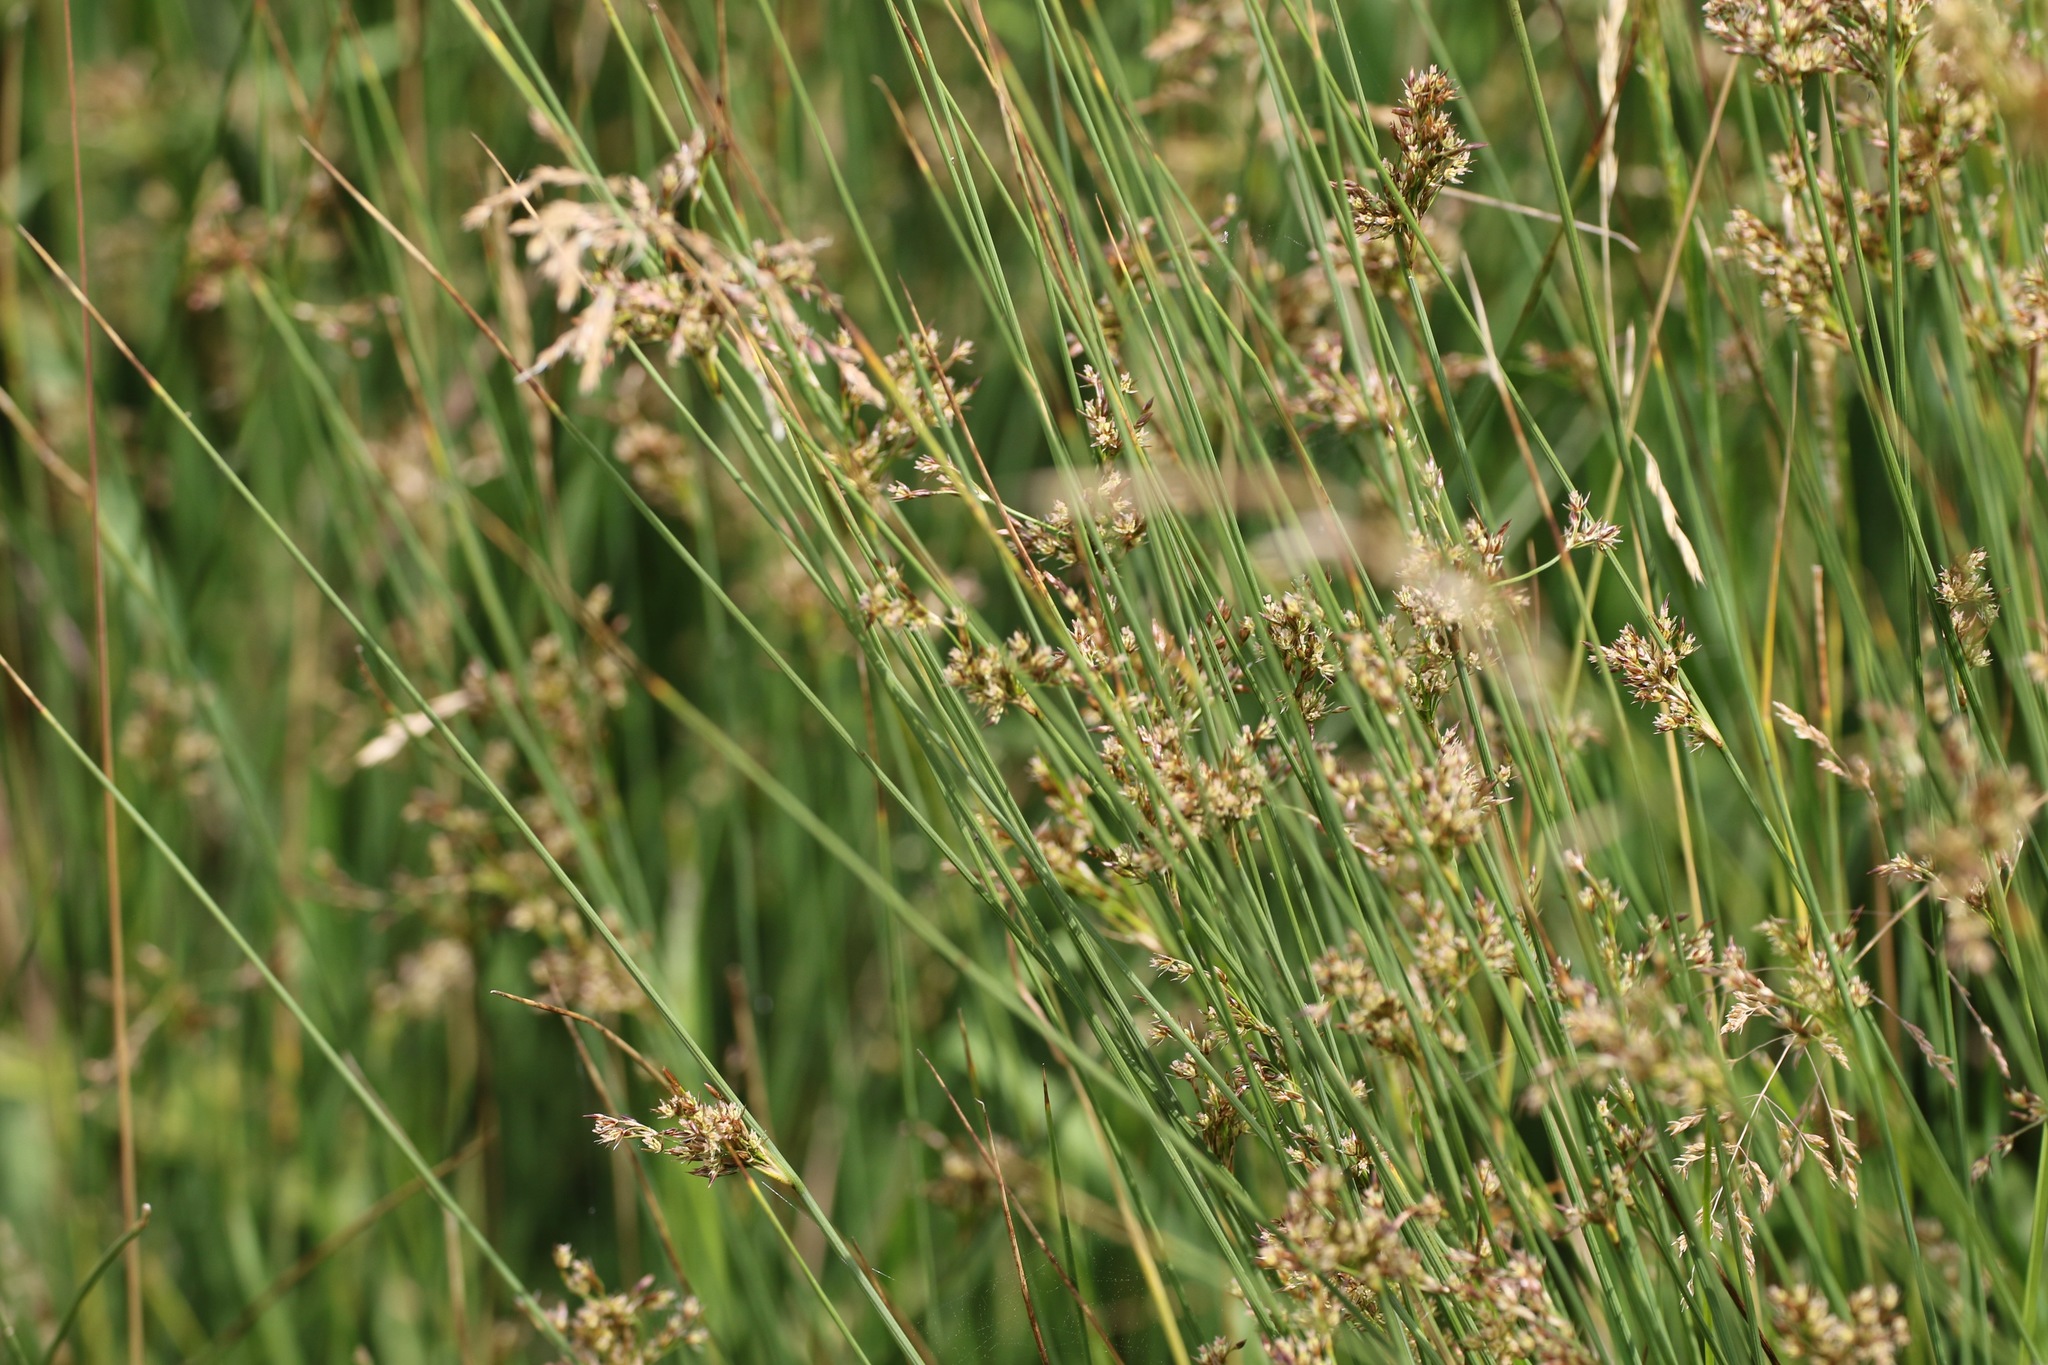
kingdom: Plantae
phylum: Tracheophyta
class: Liliopsida
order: Poales
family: Juncaceae
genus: Juncus
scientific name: Juncus effusus
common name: Soft rush
